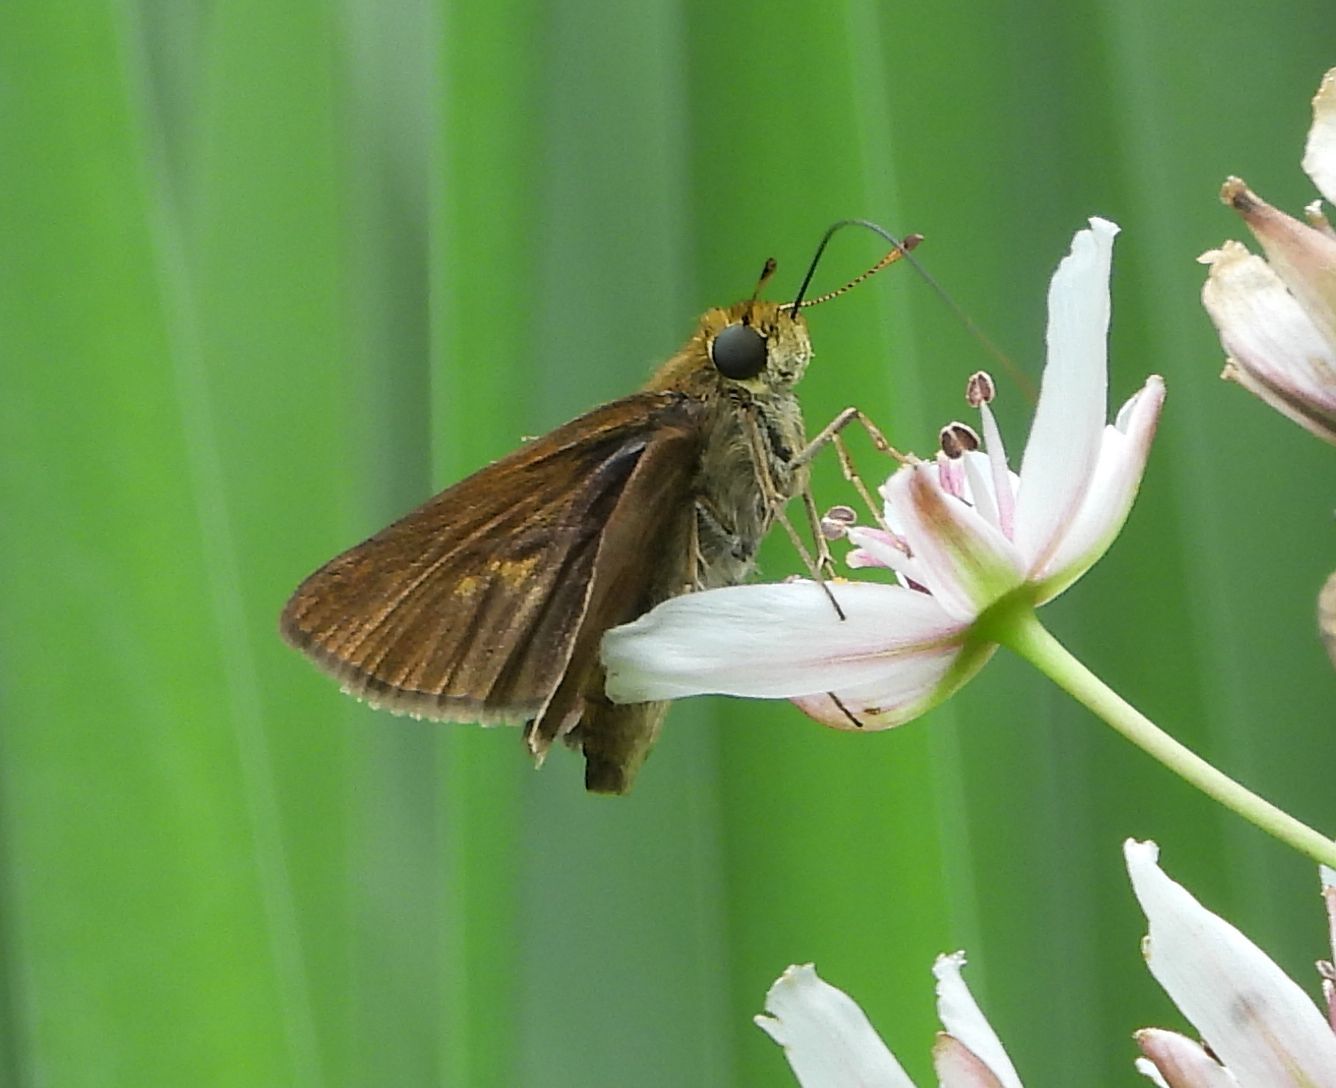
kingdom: Animalia
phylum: Arthropoda
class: Insecta
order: Lepidoptera
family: Hesperiidae
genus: Euphyes
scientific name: Euphyes vestris
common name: Dun skipper
